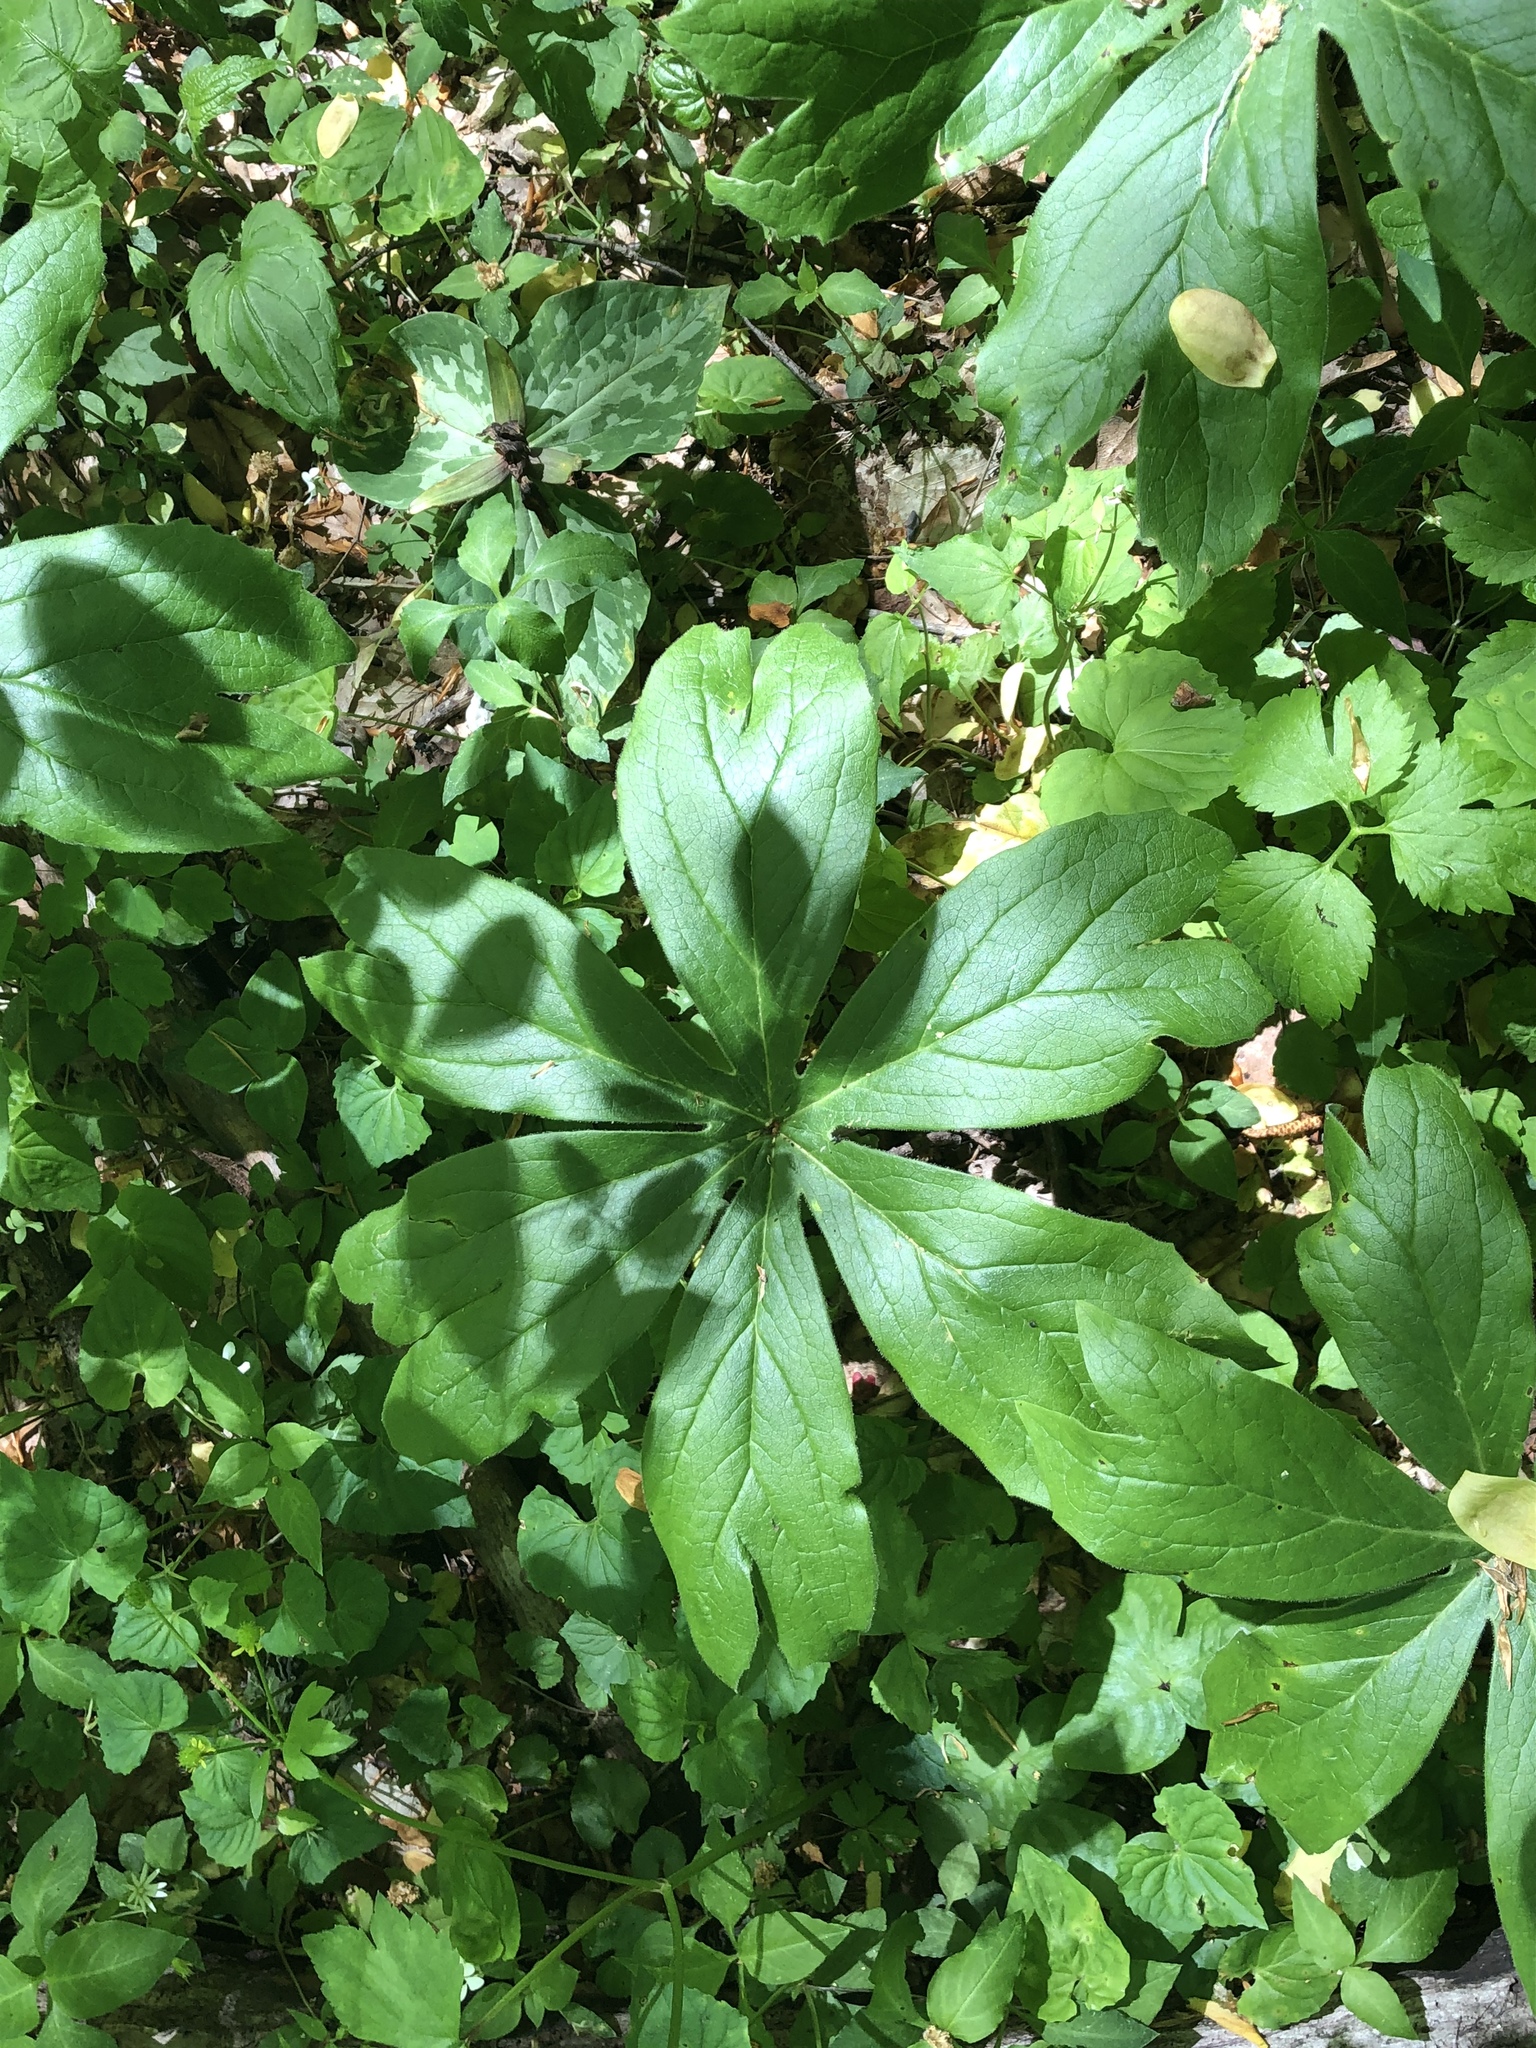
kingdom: Plantae
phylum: Tracheophyta
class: Magnoliopsida
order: Ranunculales
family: Berberidaceae
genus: Podophyllum
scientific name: Podophyllum peltatum
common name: Wild mandrake
